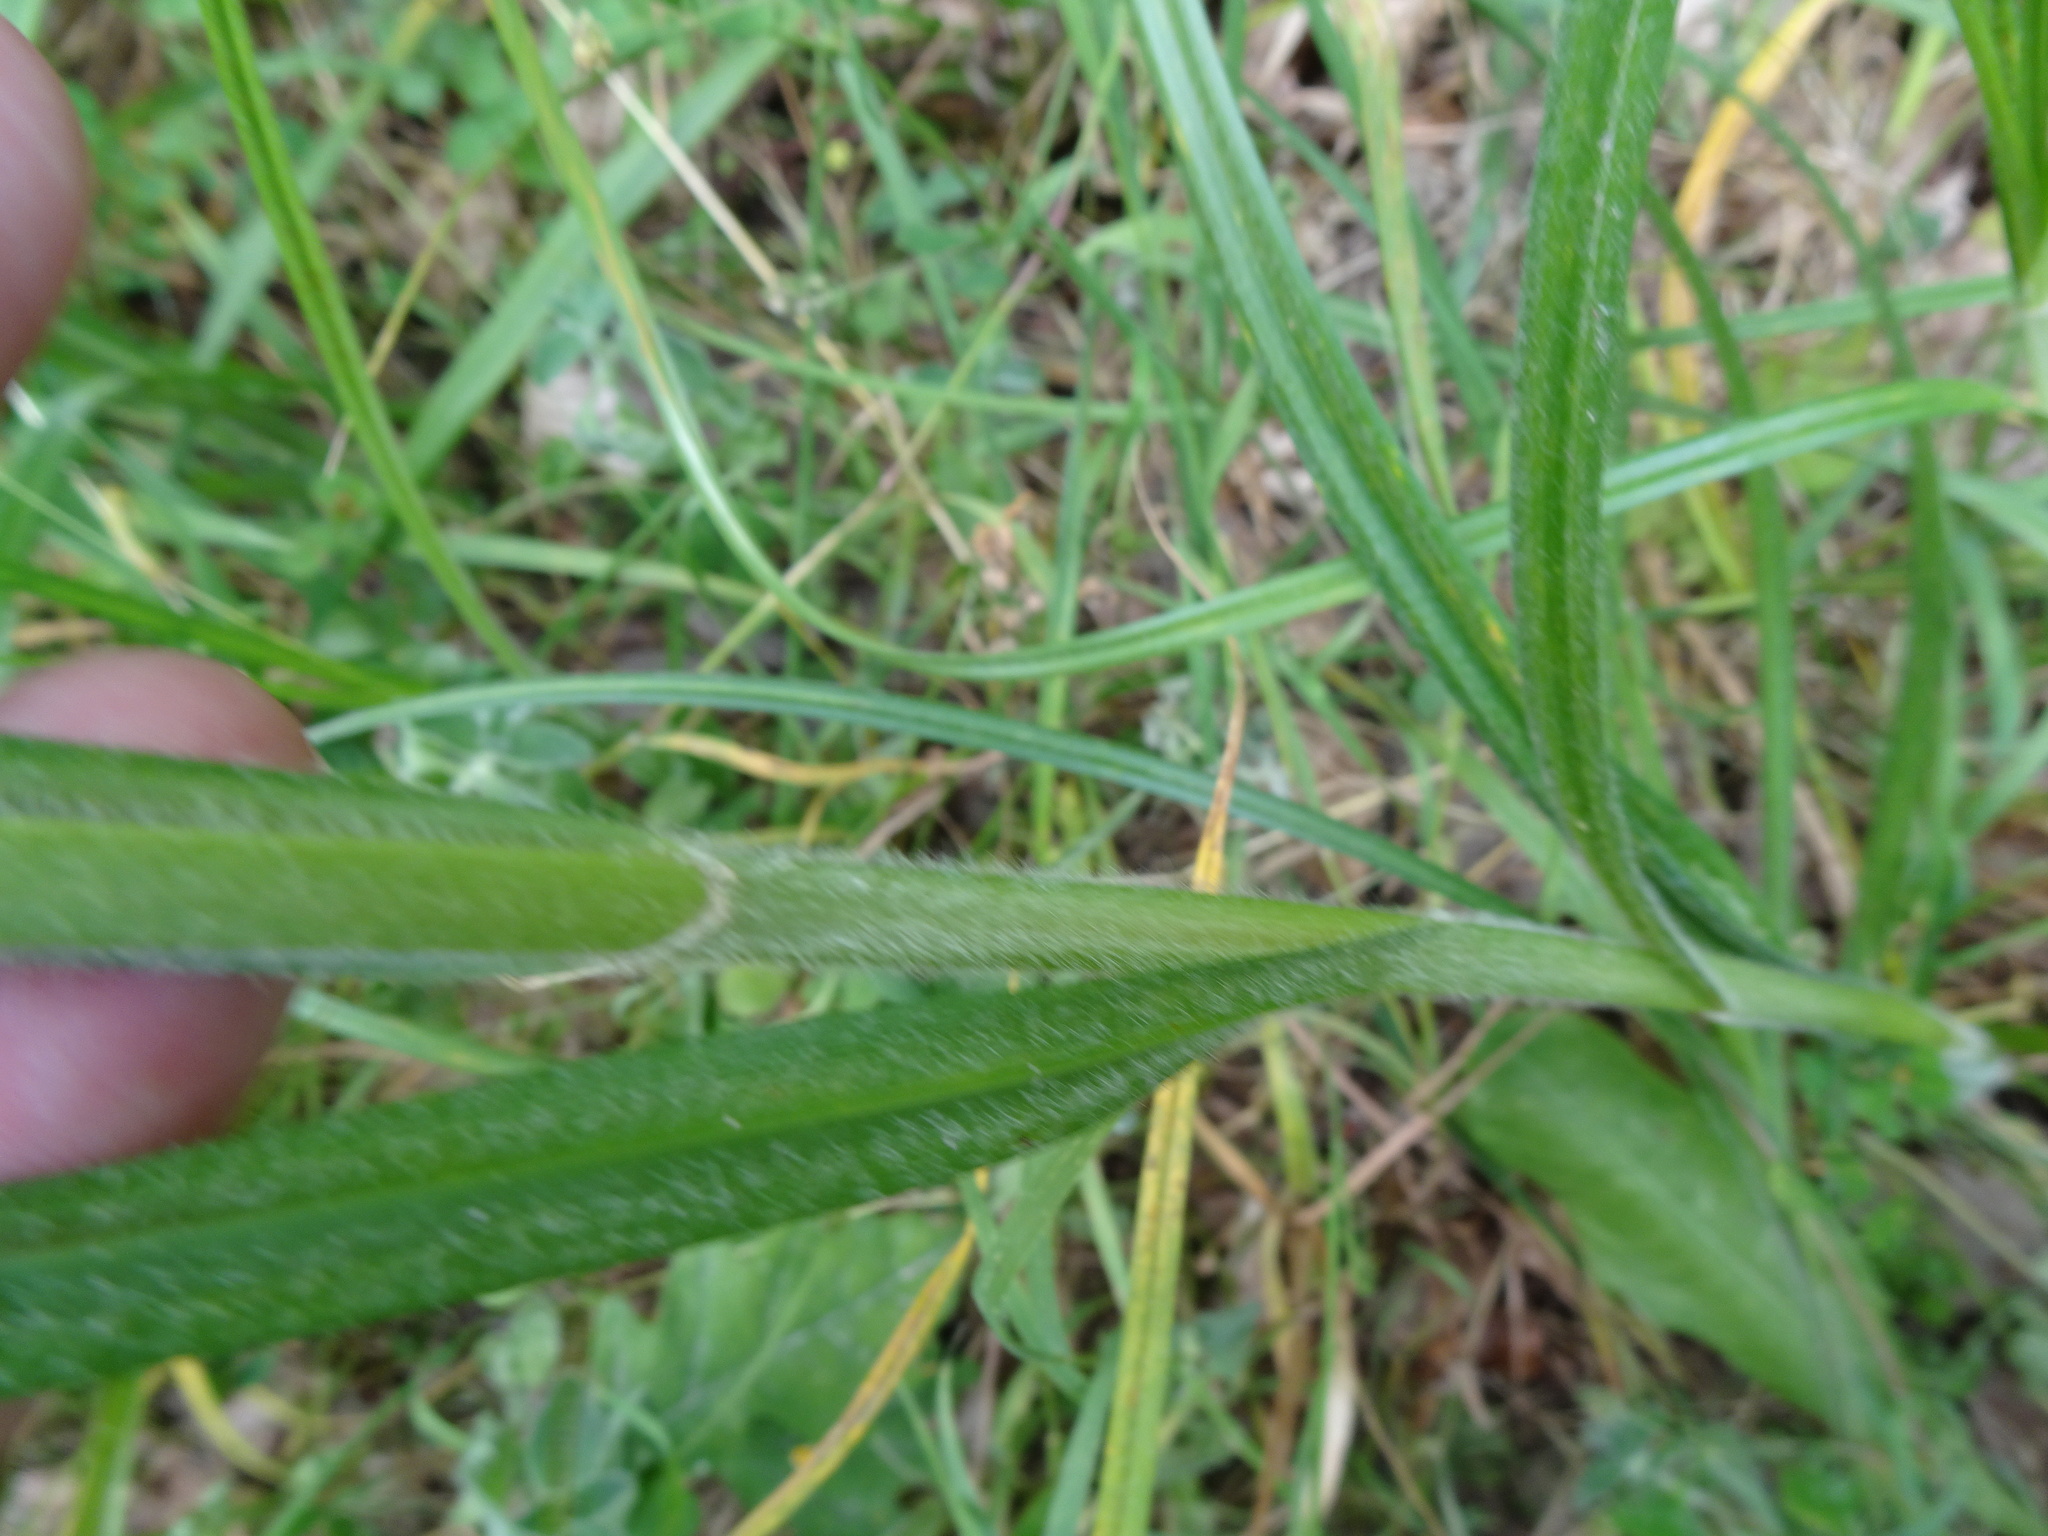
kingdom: Plantae
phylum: Tracheophyta
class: Liliopsida
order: Poales
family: Cyperaceae
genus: Carex
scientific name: Carex hirta
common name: Hairy sedge
